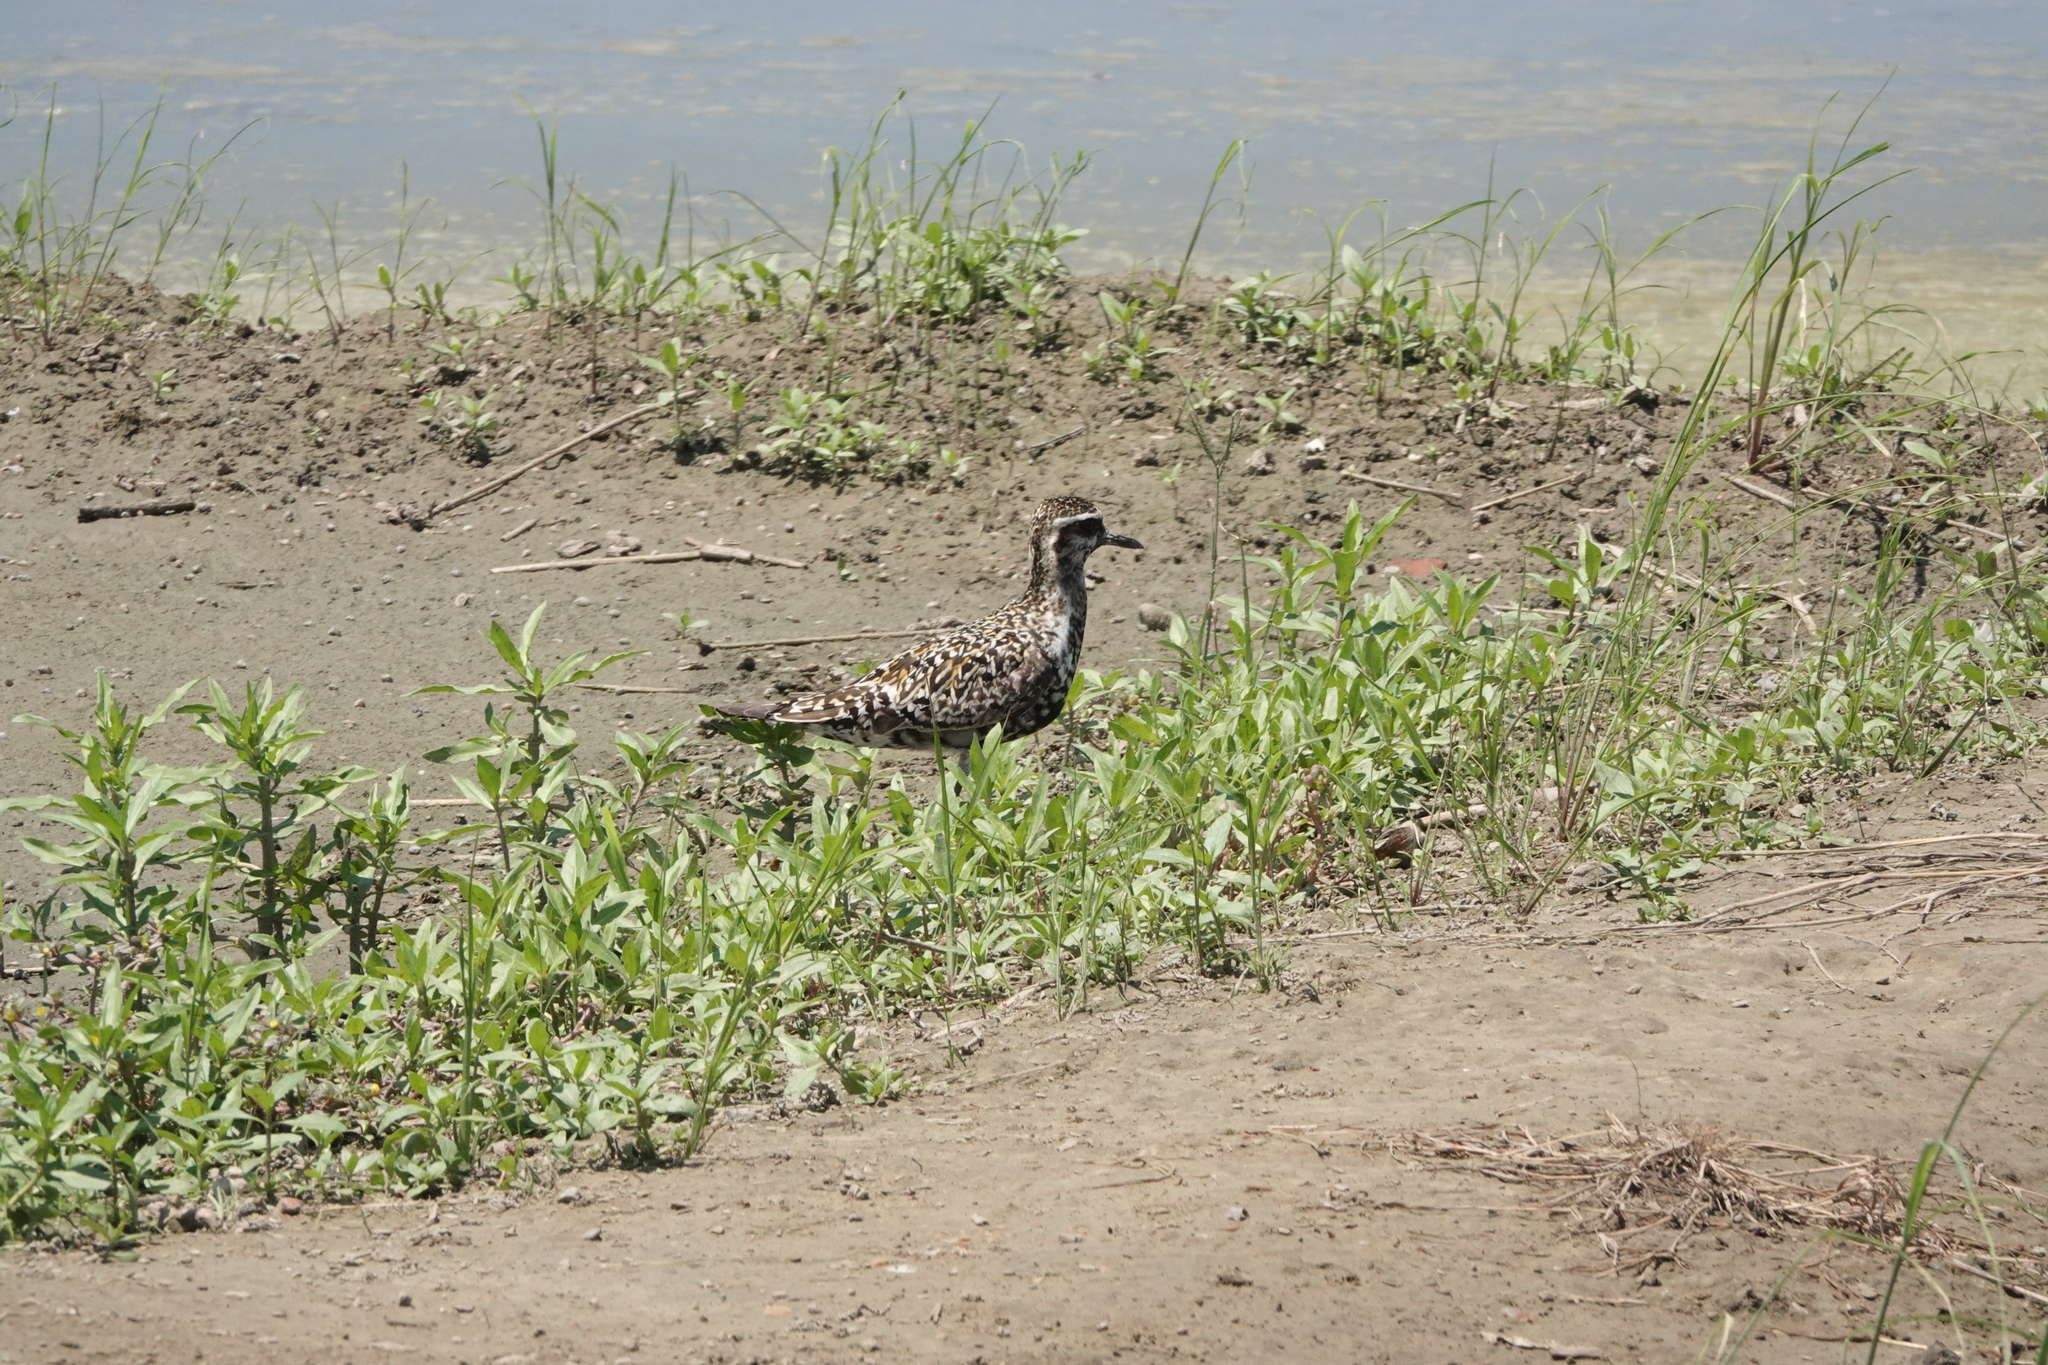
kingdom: Animalia
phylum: Chordata
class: Aves
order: Charadriiformes
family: Charadriidae
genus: Pluvialis
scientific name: Pluvialis fulva
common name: Pacific golden plover
